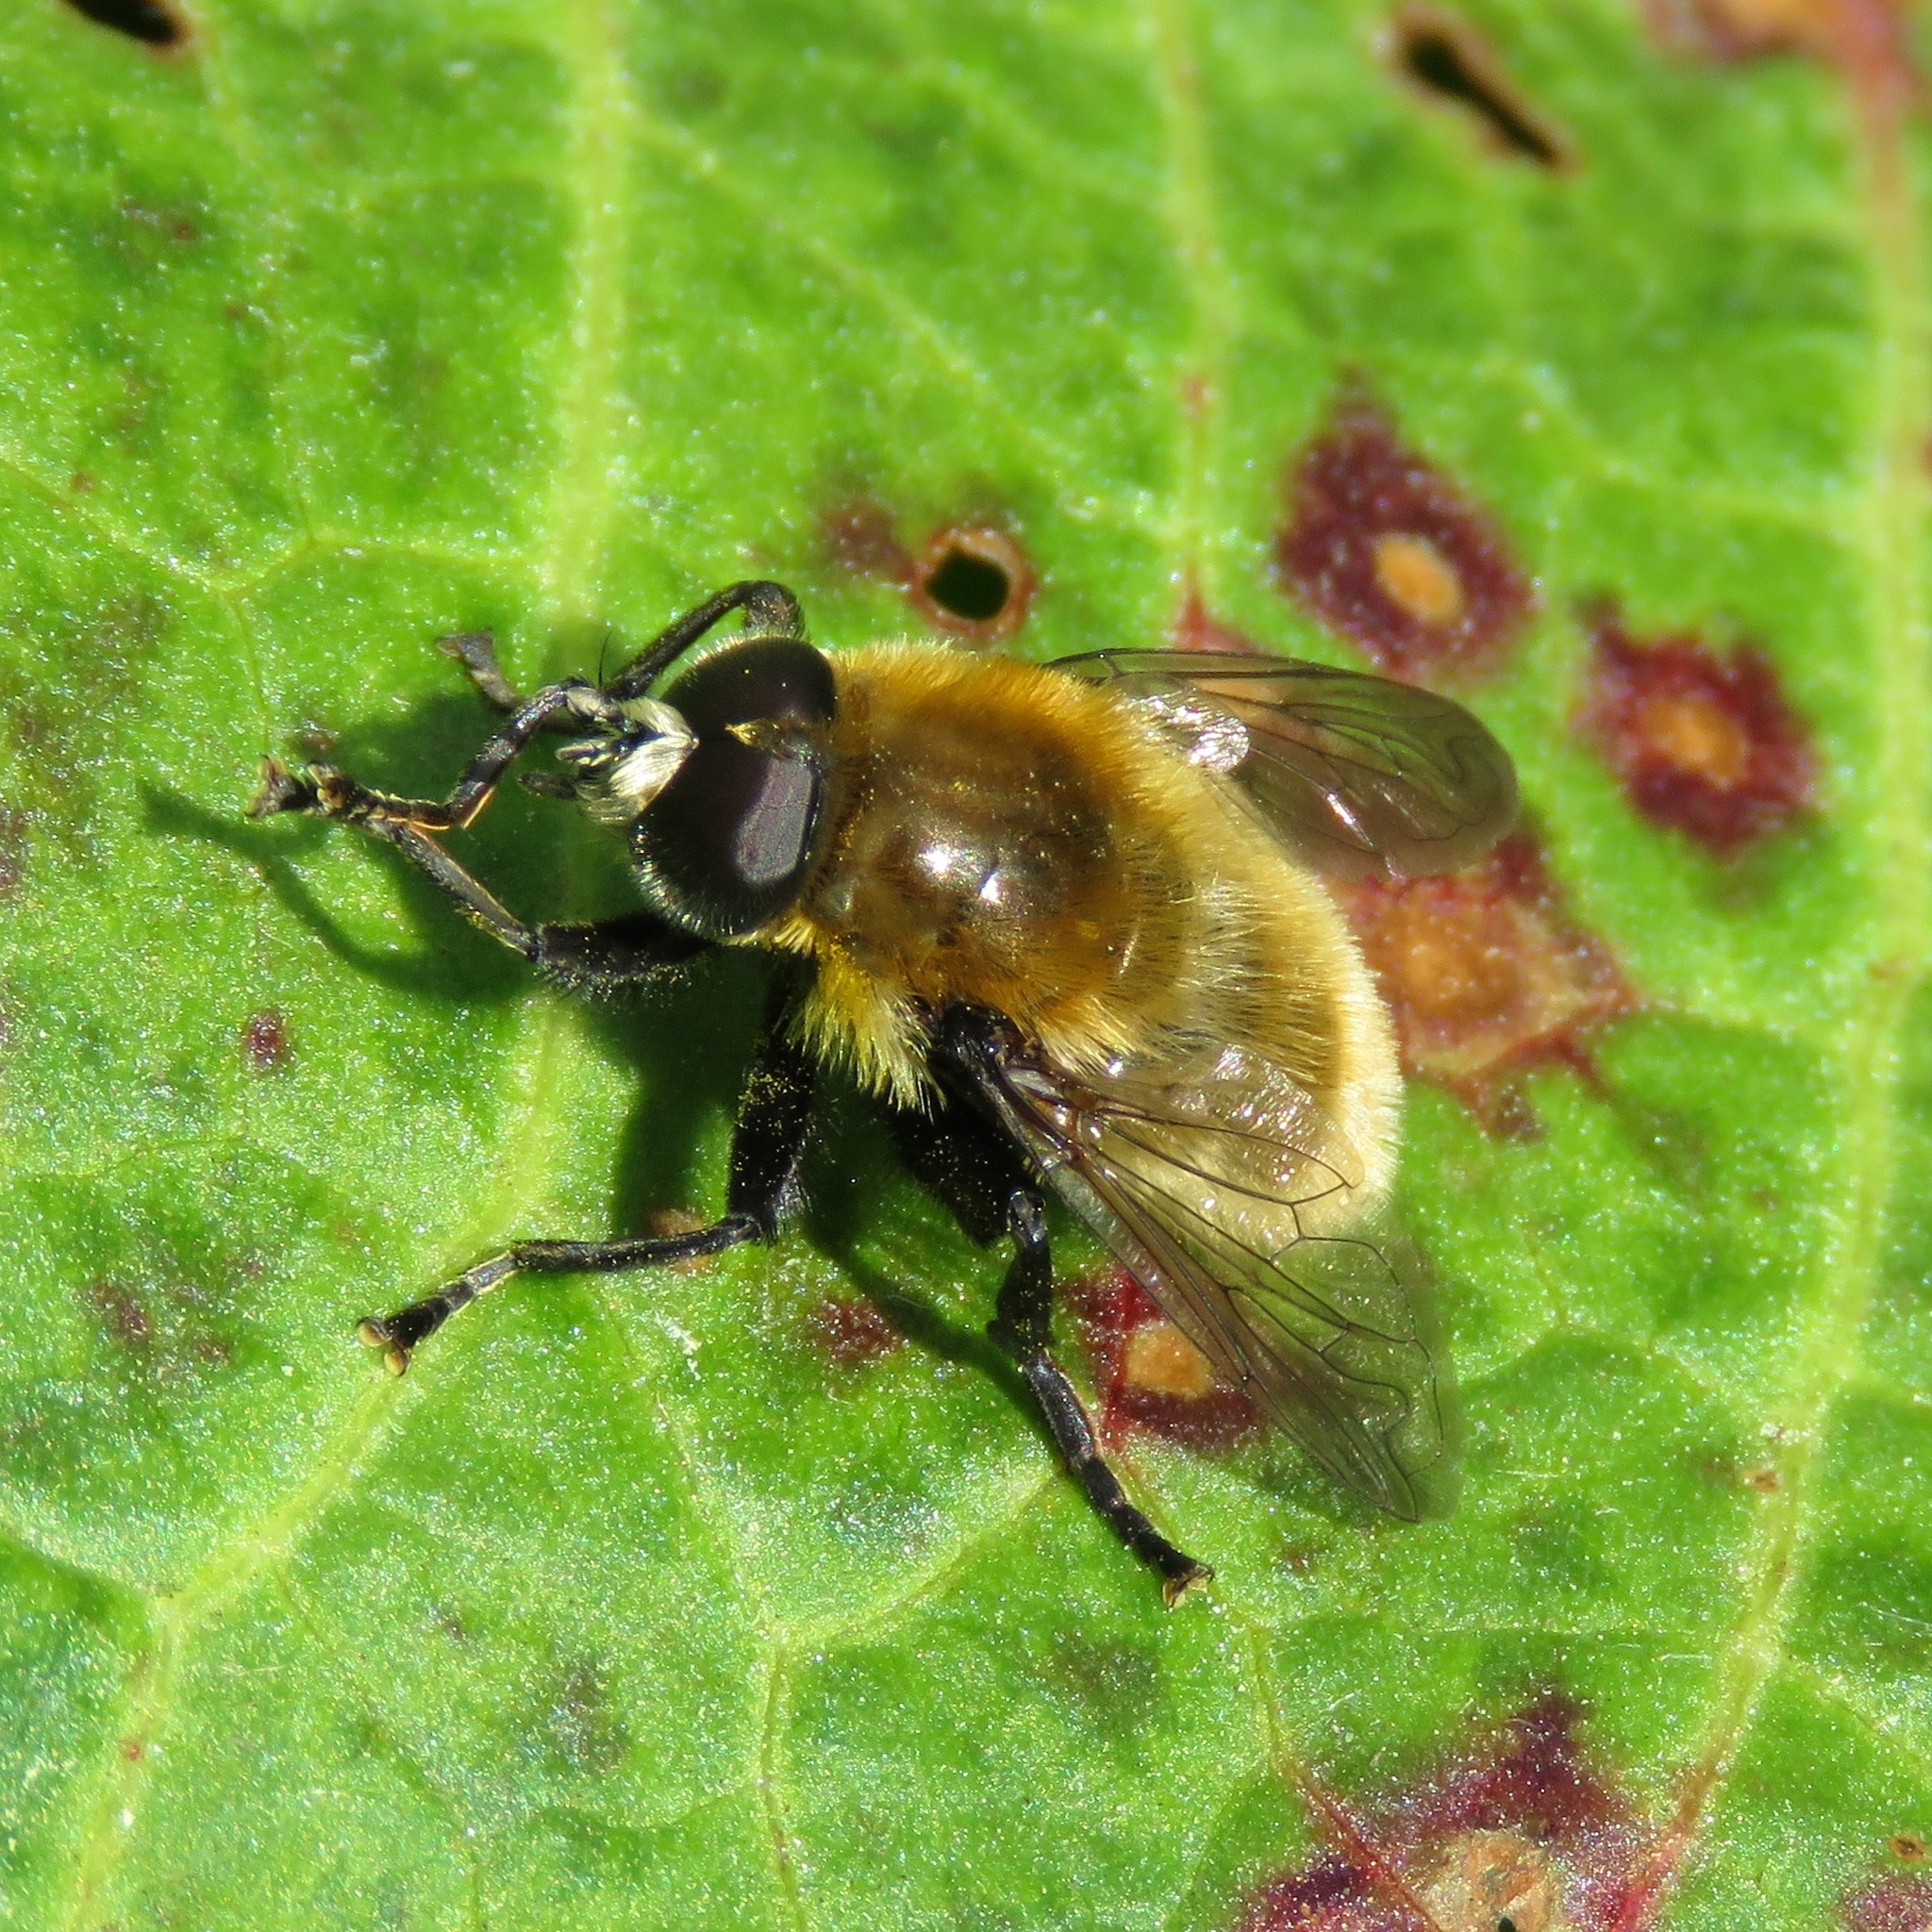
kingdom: Animalia
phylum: Arthropoda
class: Insecta
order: Diptera
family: Syrphidae
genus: Merodon
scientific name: Merodon equestris
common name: Greater bulb-fly
